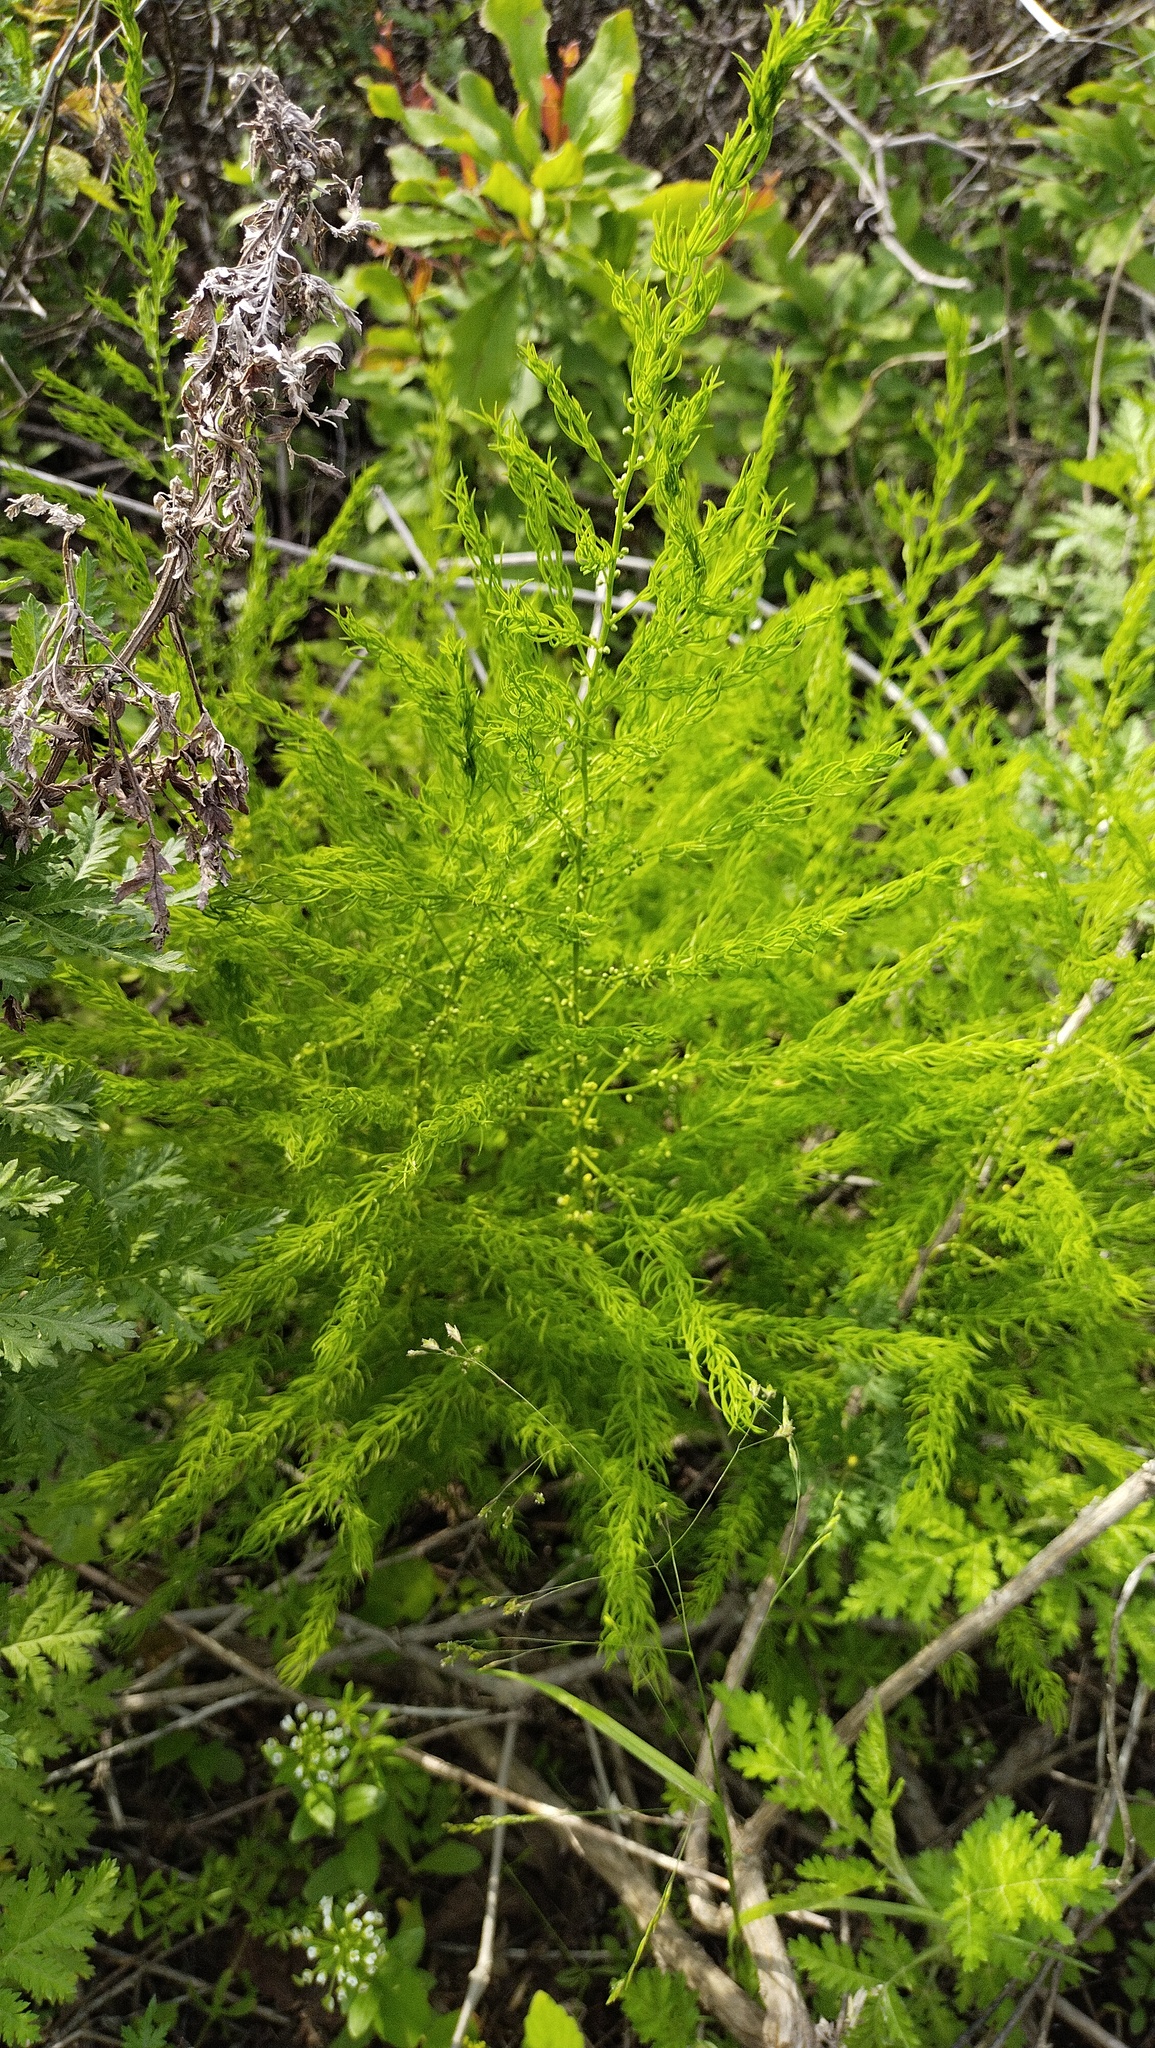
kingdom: Plantae
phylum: Tracheophyta
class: Liliopsida
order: Asparagales
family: Asparagaceae
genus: Asparagus
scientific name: Asparagus schoberioides
